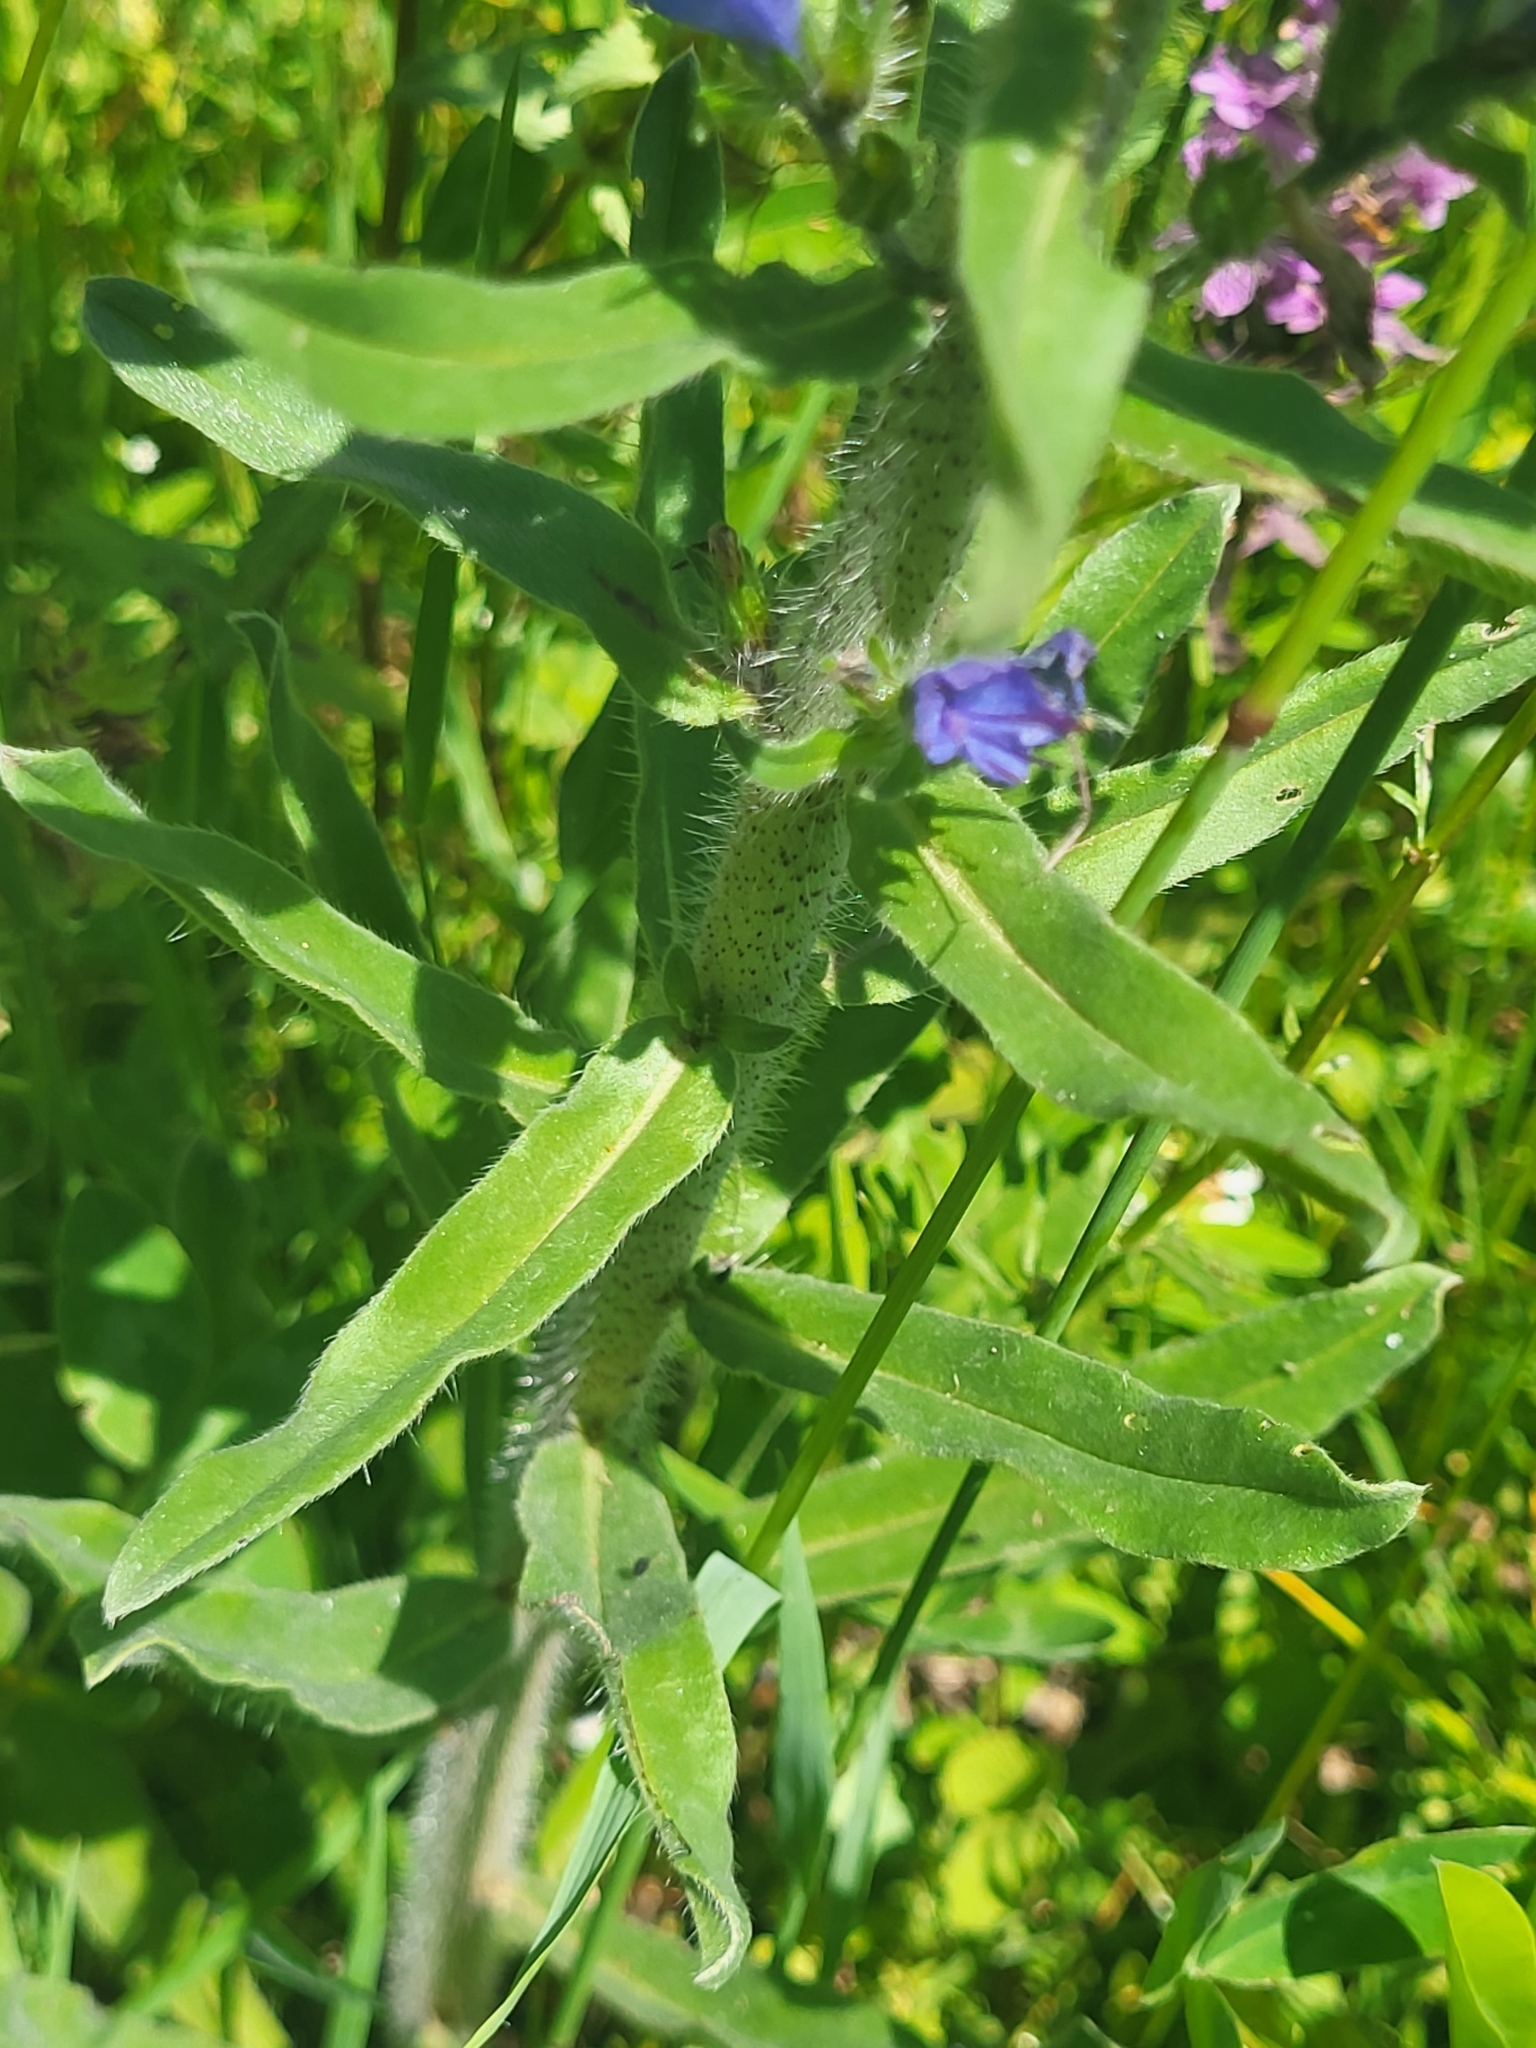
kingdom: Plantae
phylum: Tracheophyta
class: Magnoliopsida
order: Boraginales
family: Boraginaceae
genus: Echium
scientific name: Echium vulgare
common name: Common viper's bugloss
